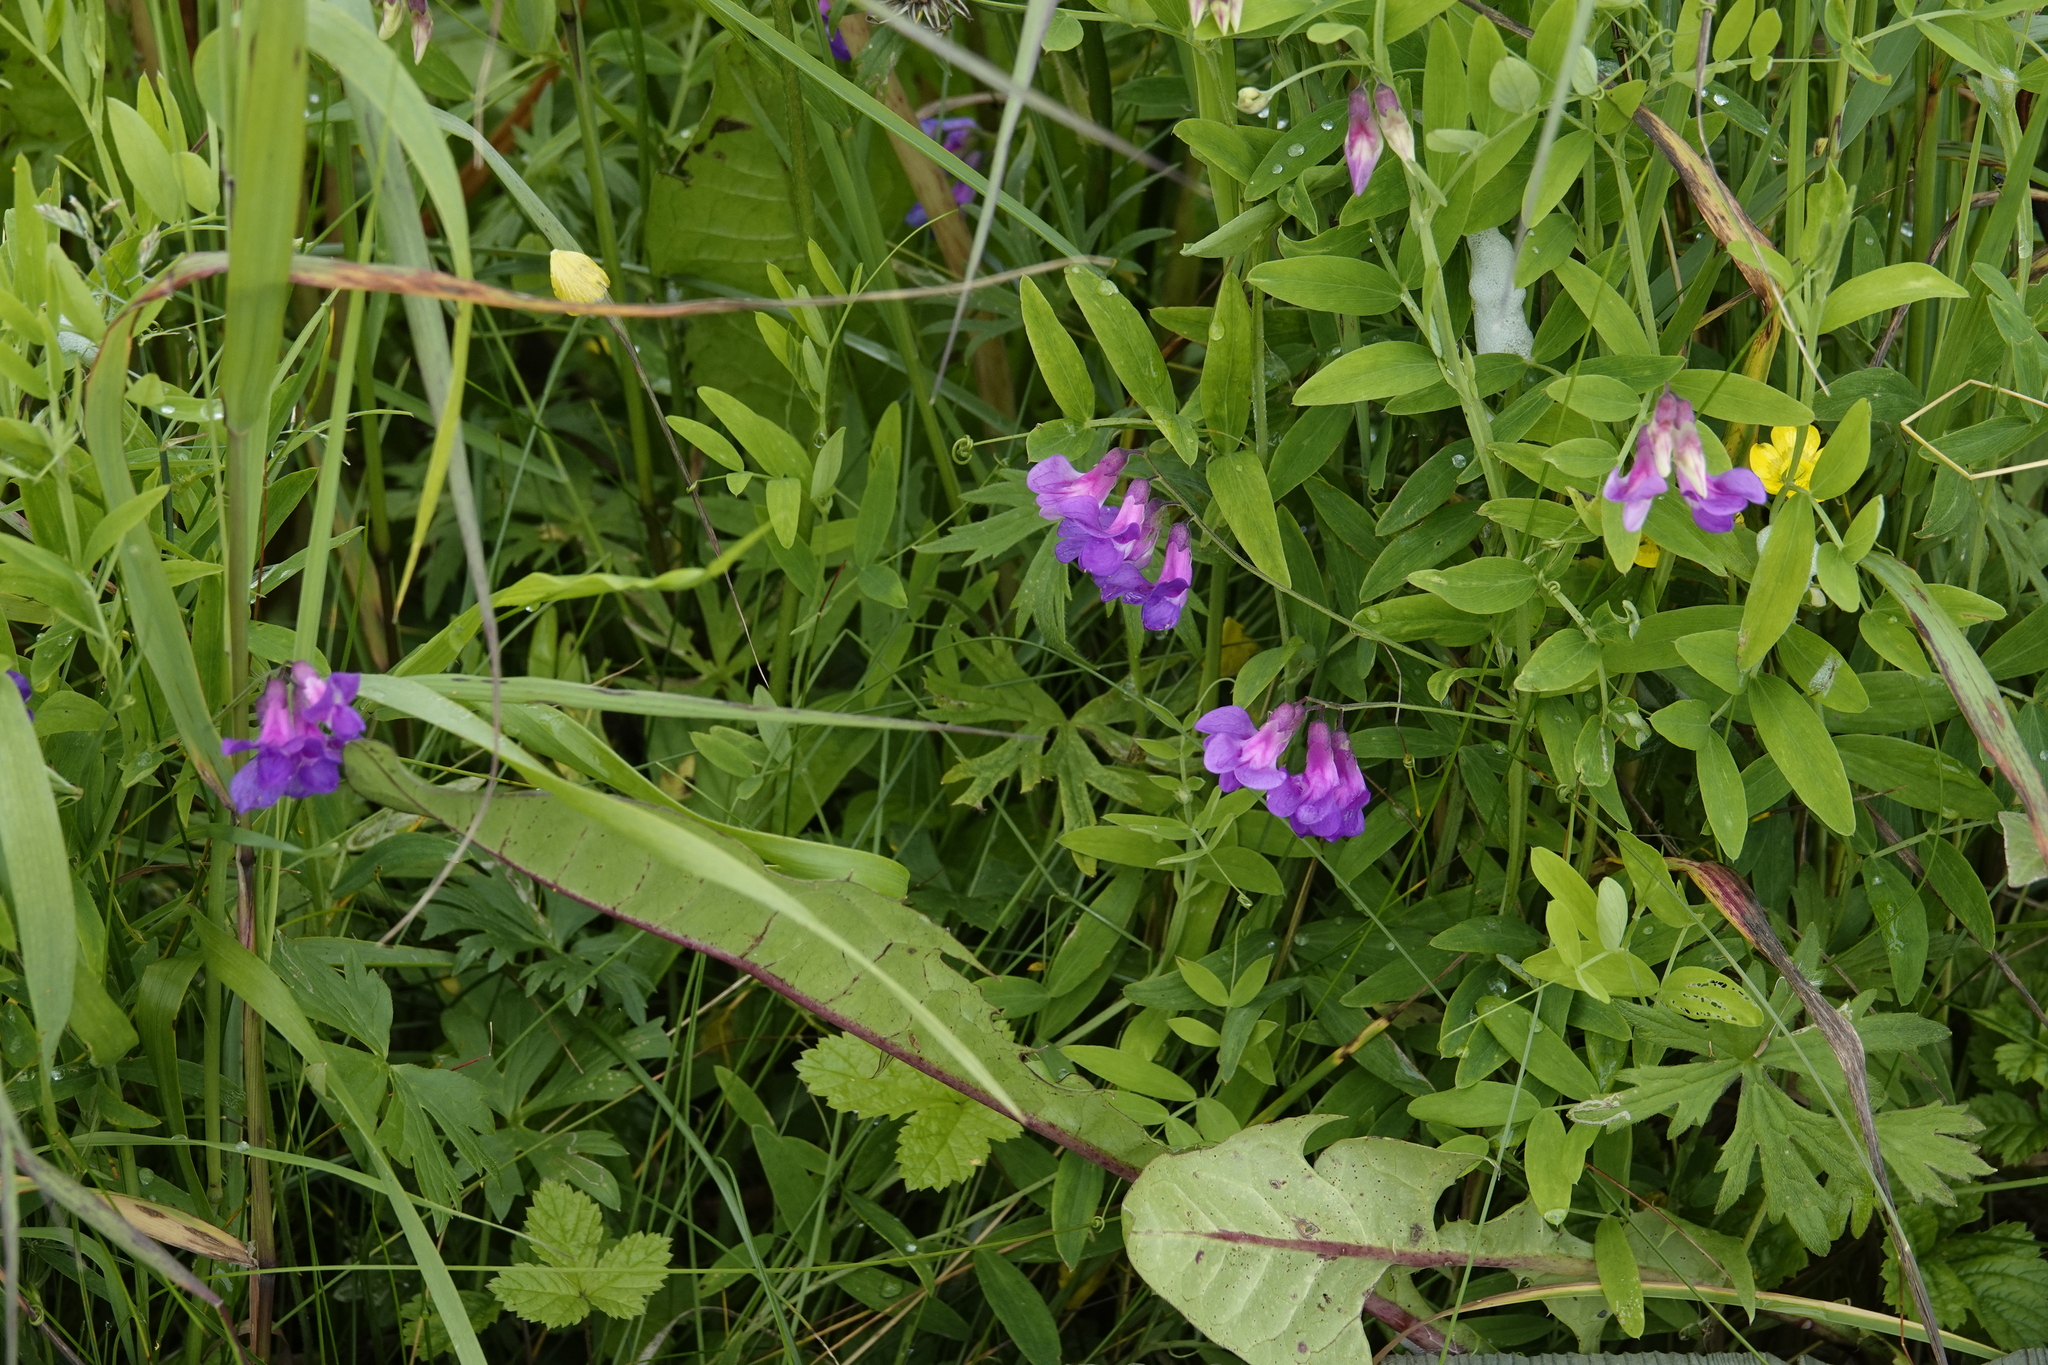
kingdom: Plantae
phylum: Tracheophyta
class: Magnoliopsida
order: Fabales
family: Fabaceae
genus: Lathyrus
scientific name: Lathyrus palustris
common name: Marsh pea
